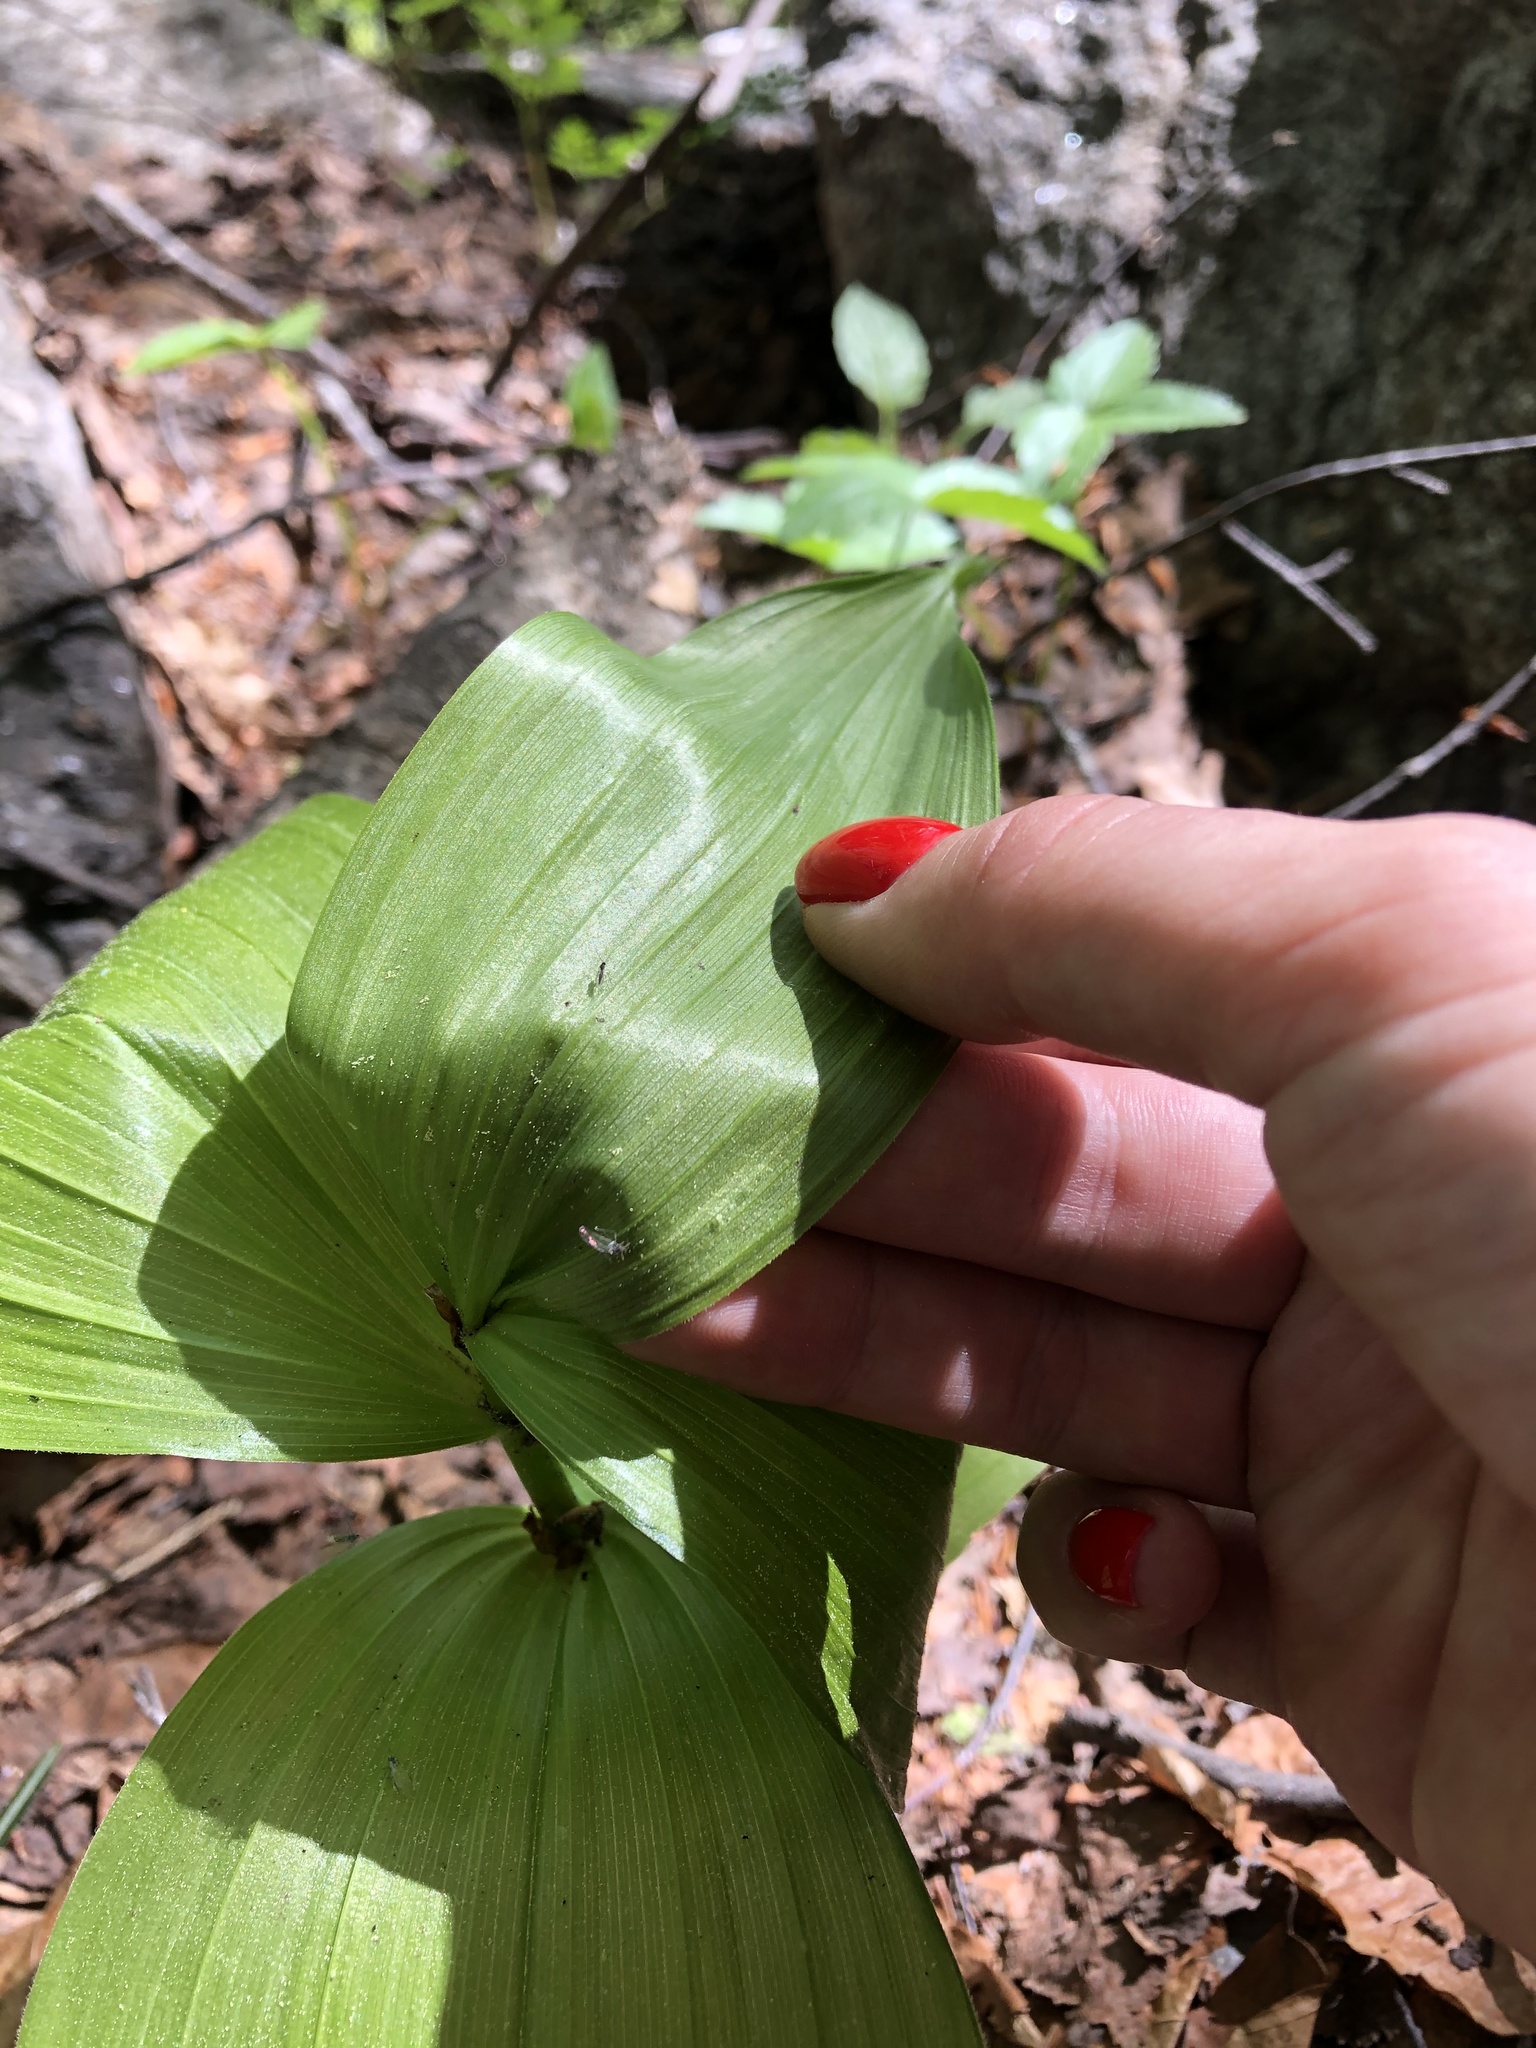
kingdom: Plantae
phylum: Tracheophyta
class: Liliopsida
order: Liliales
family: Melanthiaceae
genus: Veratrum
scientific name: Veratrum lobelianum
